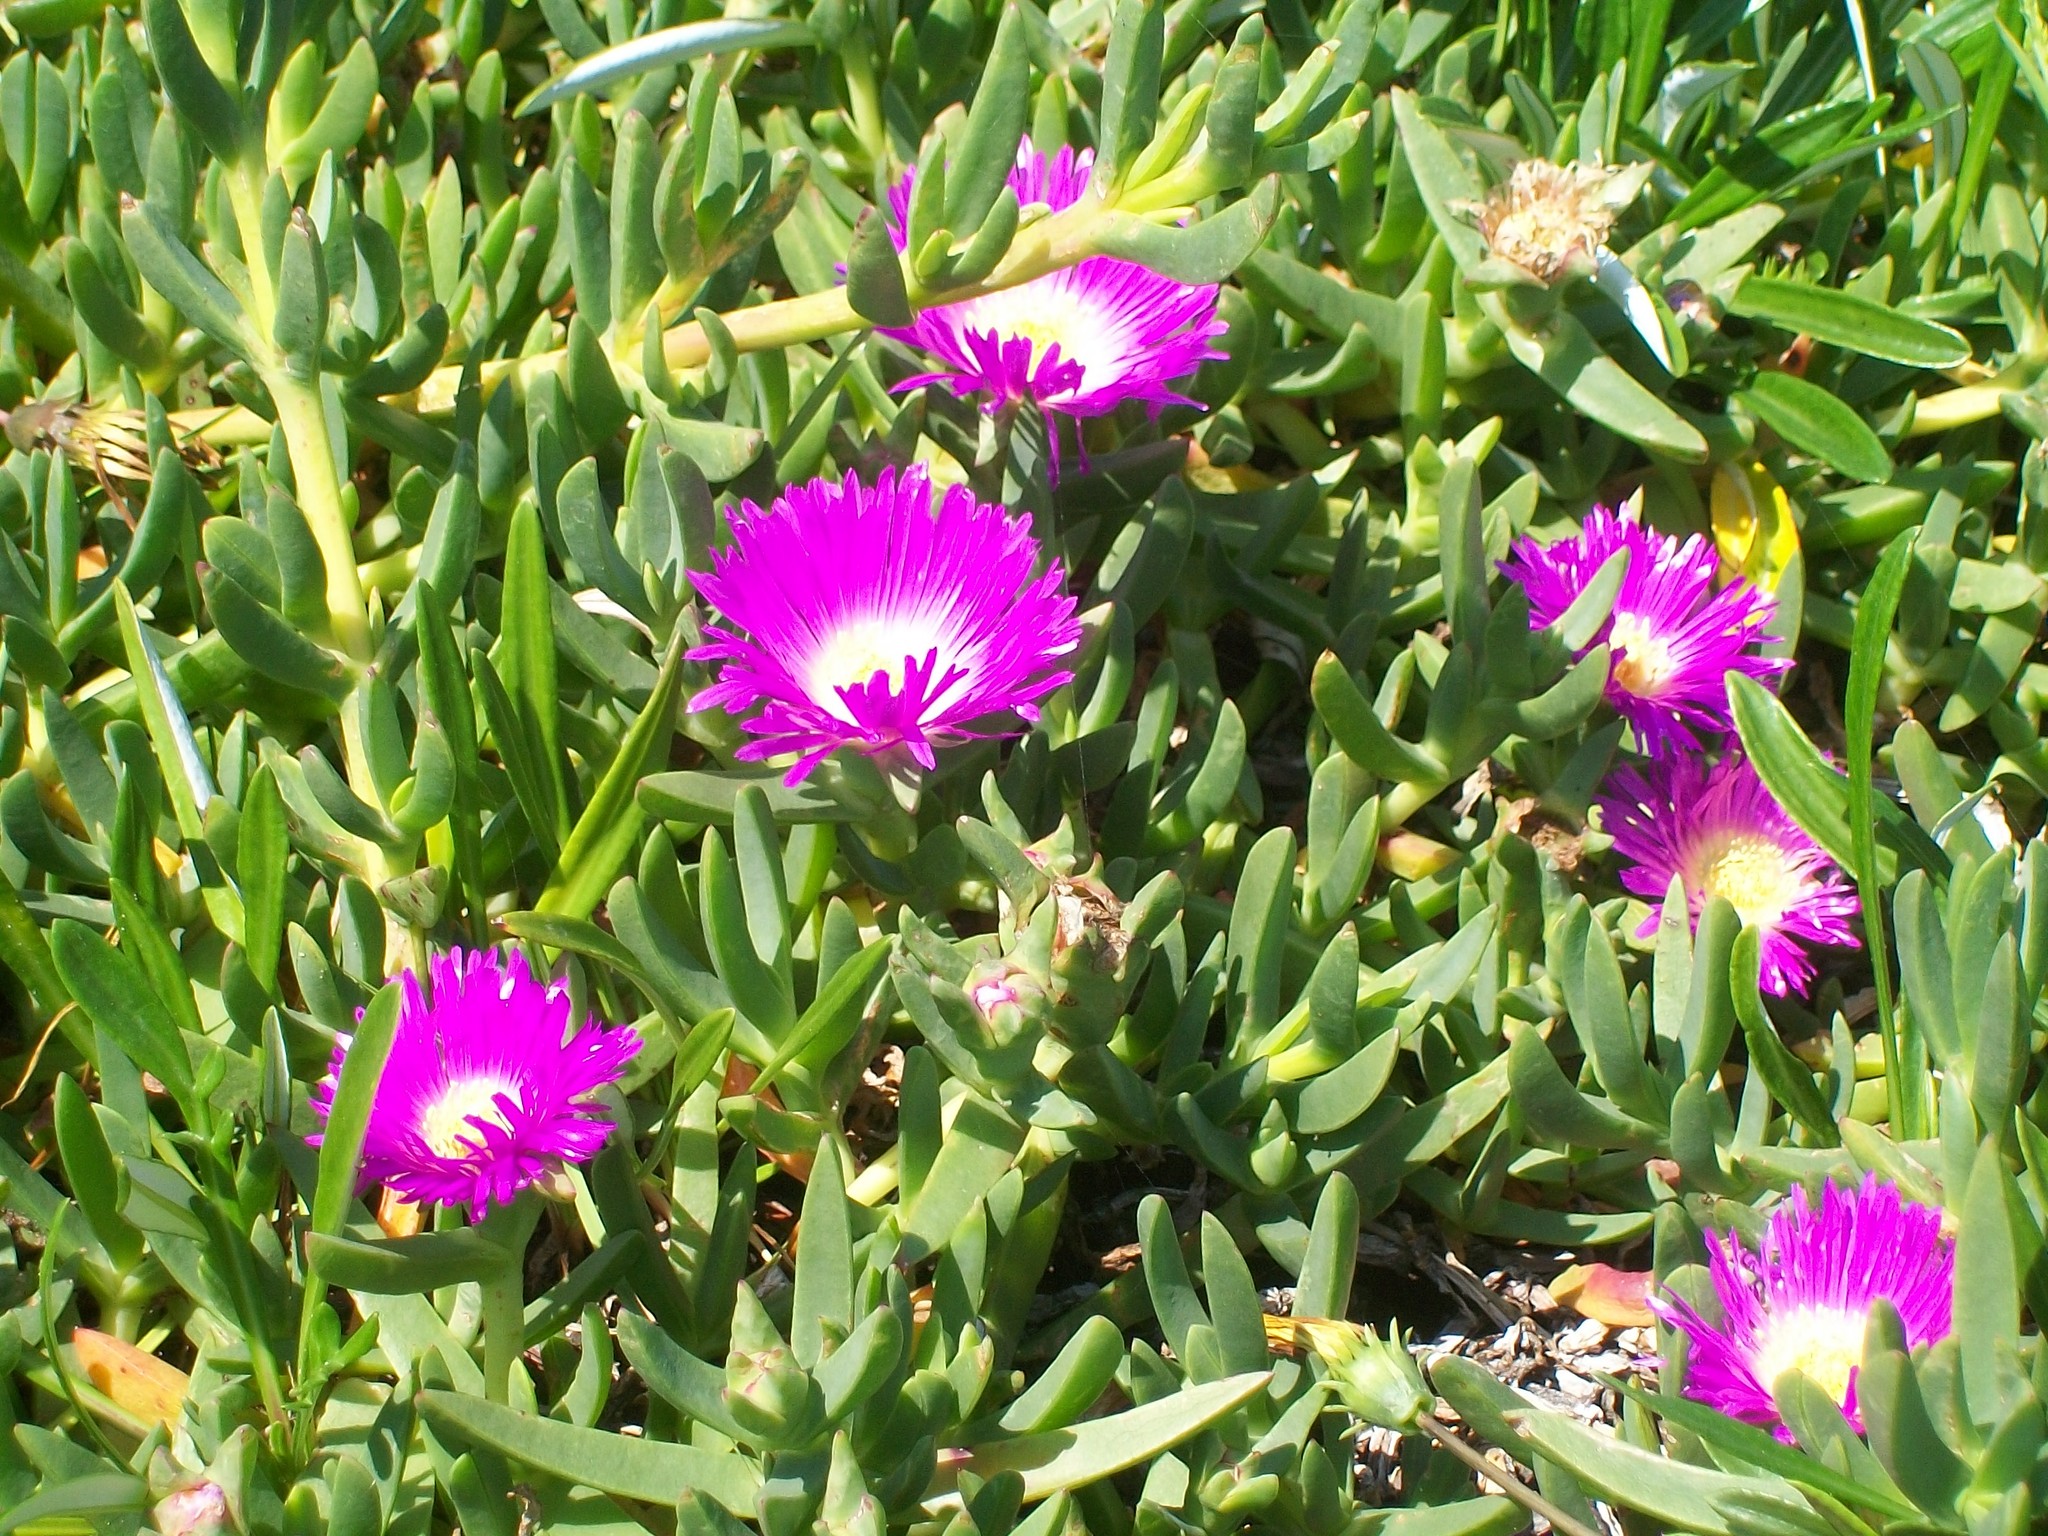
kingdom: Plantae
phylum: Tracheophyta
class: Magnoliopsida
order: Caryophyllales
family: Aizoaceae
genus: Carpobrotus
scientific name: Carpobrotus glaucescens
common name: Angular sea-fig
